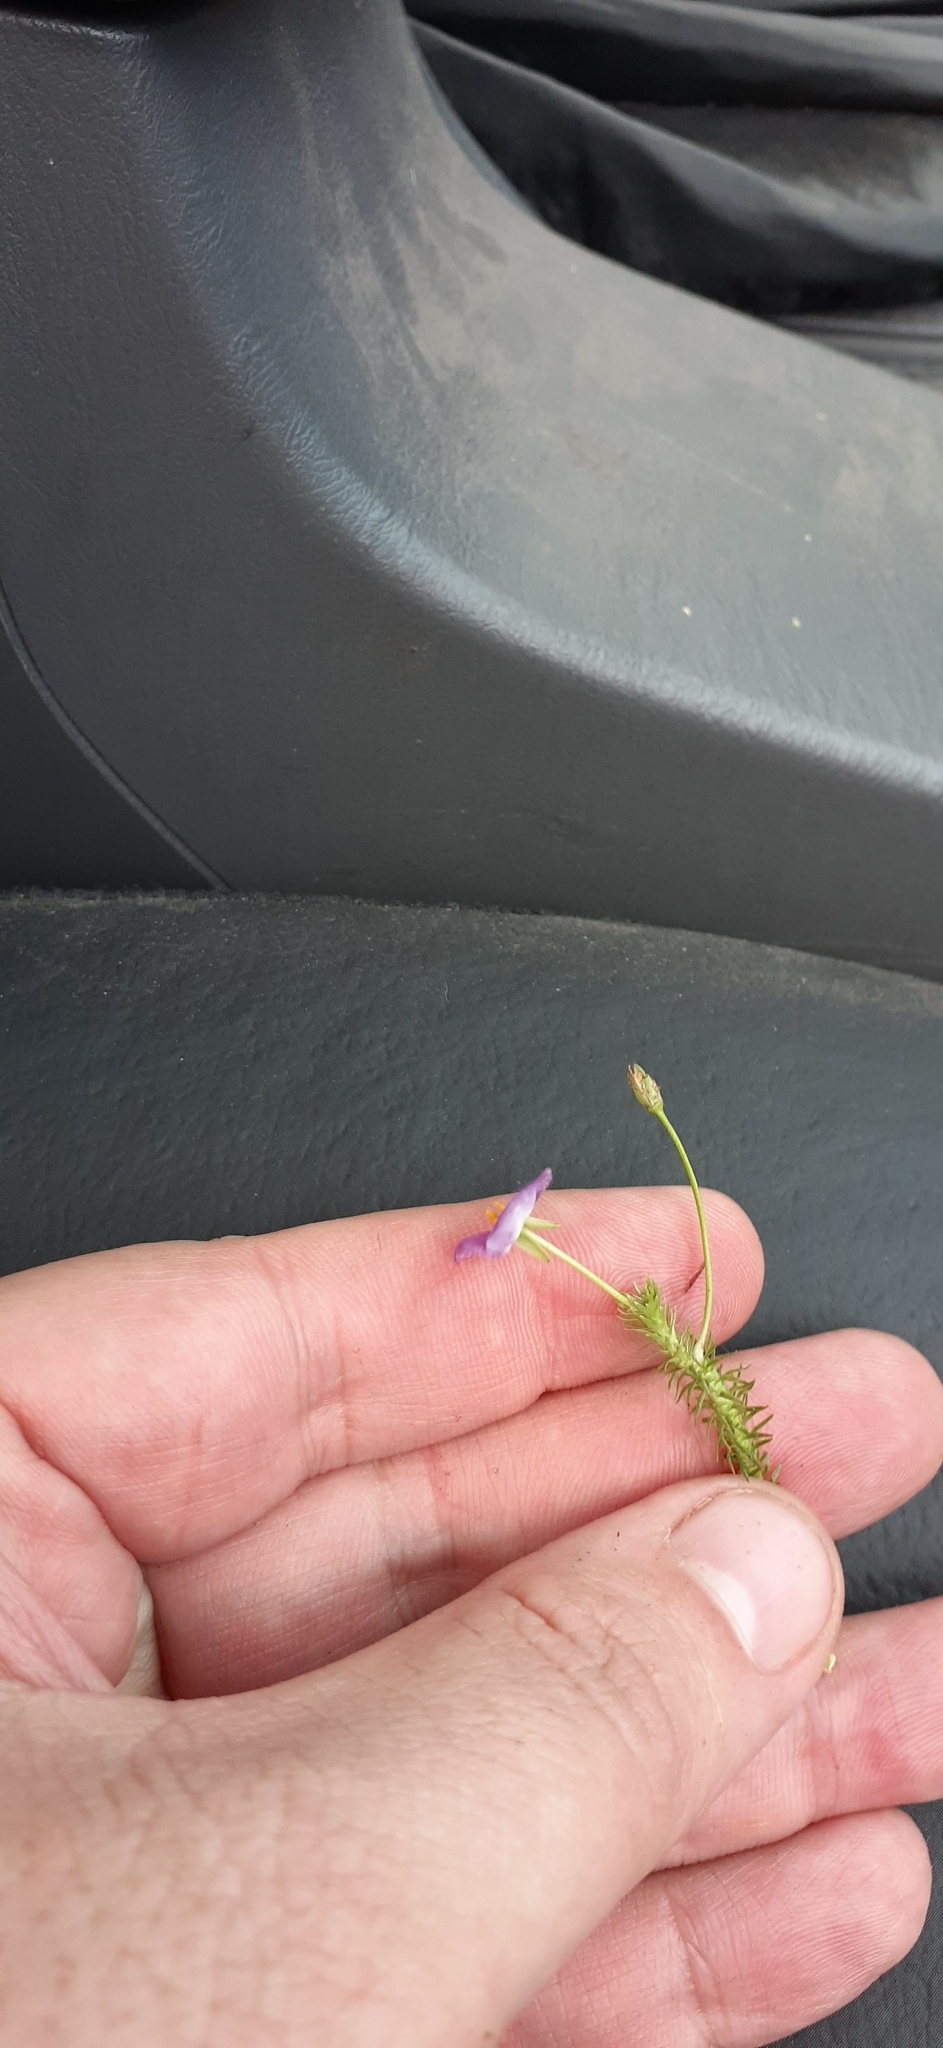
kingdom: Plantae
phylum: Tracheophyta
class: Liliopsida
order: Poales
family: Mayacaceae
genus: Mayaca
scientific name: Mayaca sellowiana
